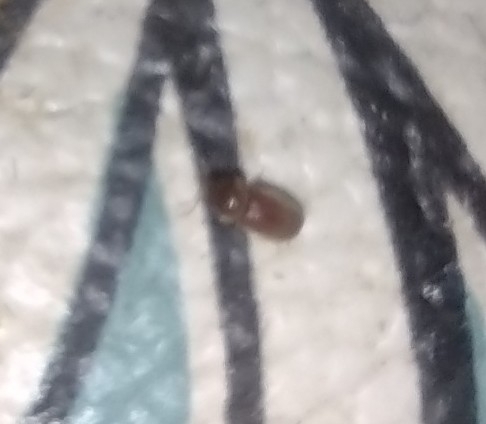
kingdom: Animalia
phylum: Arthropoda
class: Insecta
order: Coleoptera
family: Anobiidae
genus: Lasioderma
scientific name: Lasioderma serricorne
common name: Cigarette beetle
